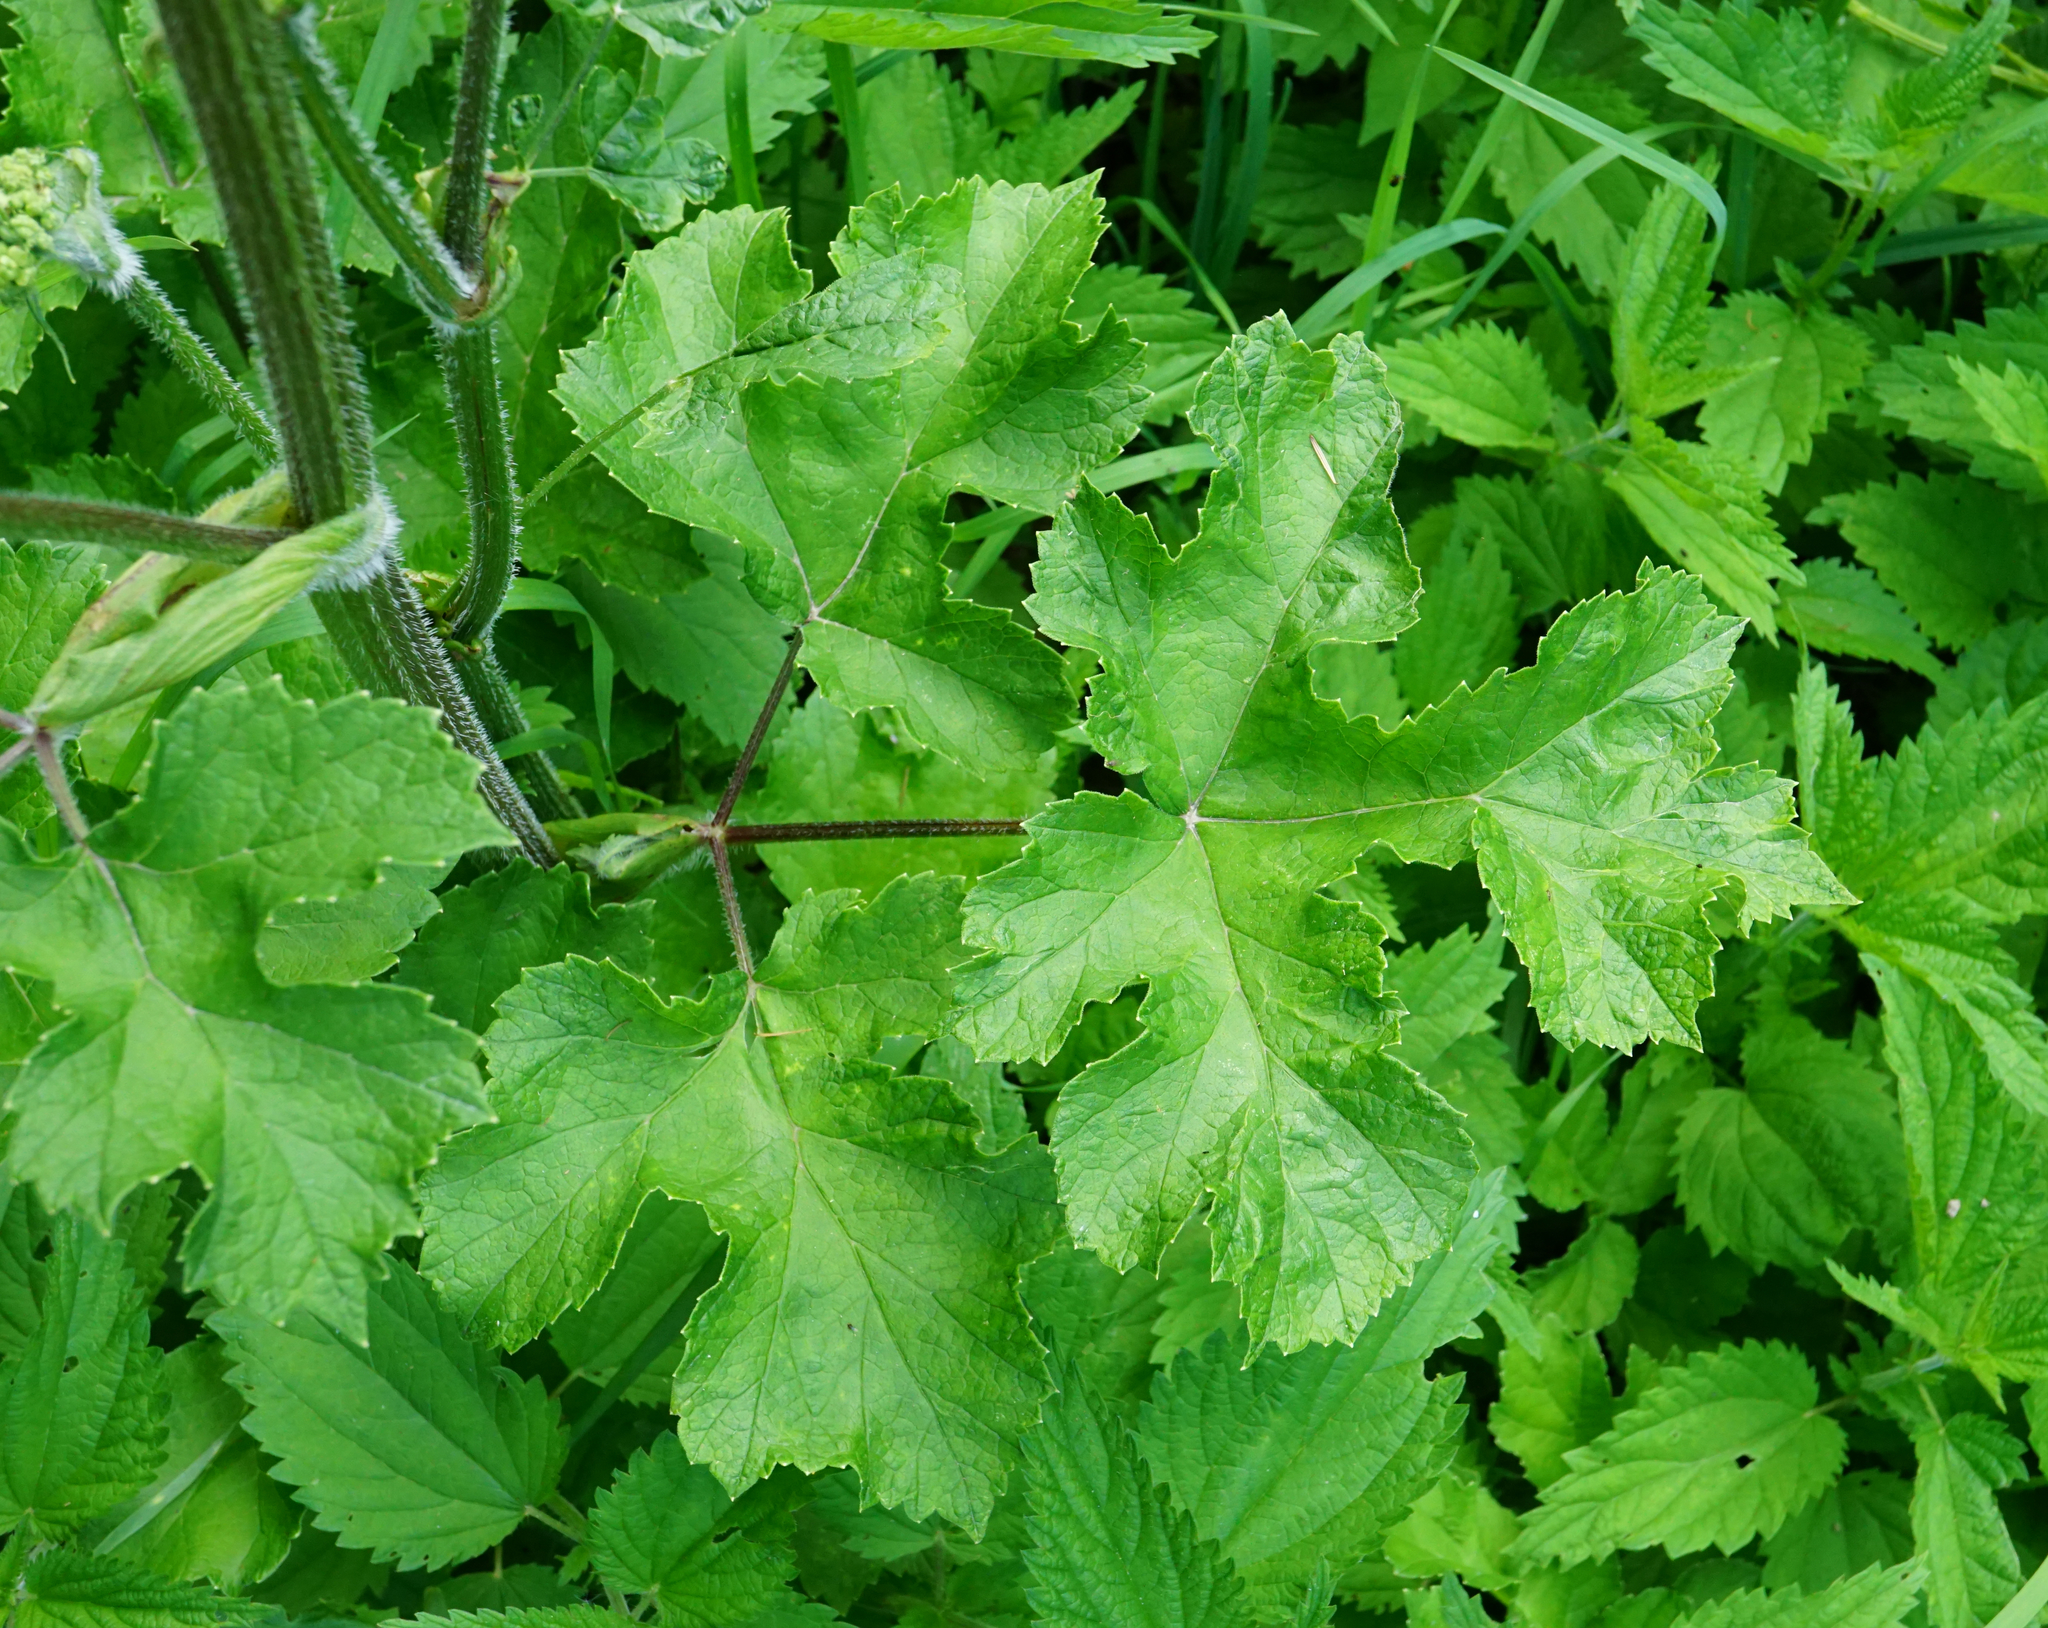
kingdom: Plantae
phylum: Tracheophyta
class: Magnoliopsida
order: Apiales
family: Apiaceae
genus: Heracleum
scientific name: Heracleum sphondylium
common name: Hogweed
